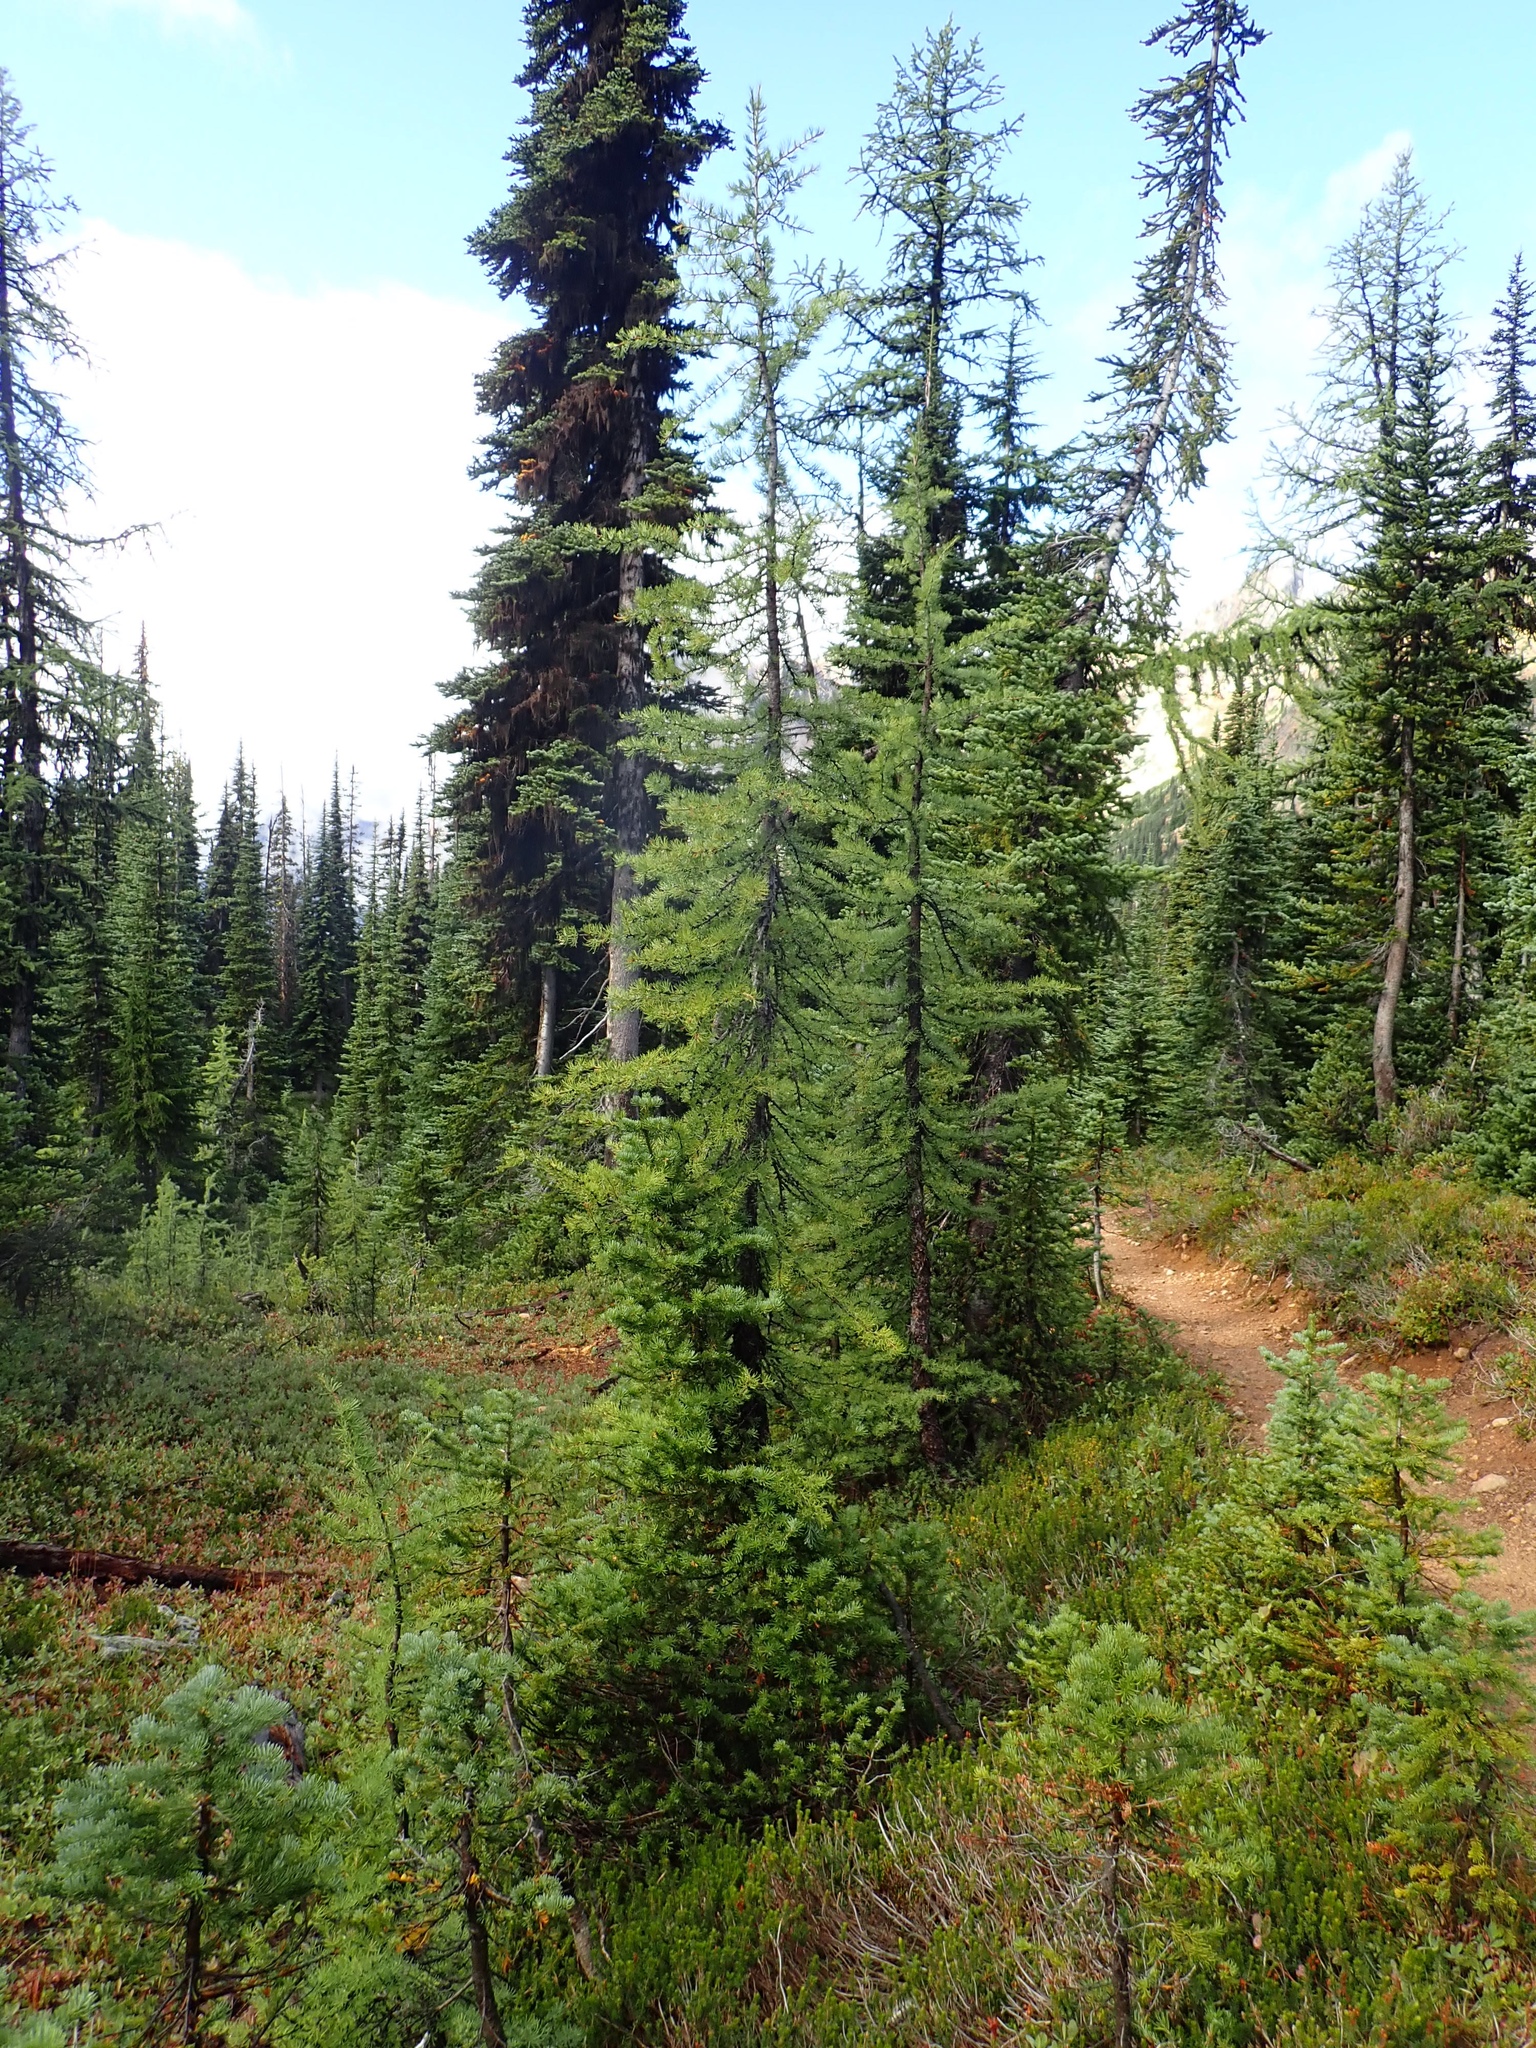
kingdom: Plantae
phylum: Tracheophyta
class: Pinopsida
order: Pinales
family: Pinaceae
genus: Larix
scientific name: Larix lyallii
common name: Alpine larch
